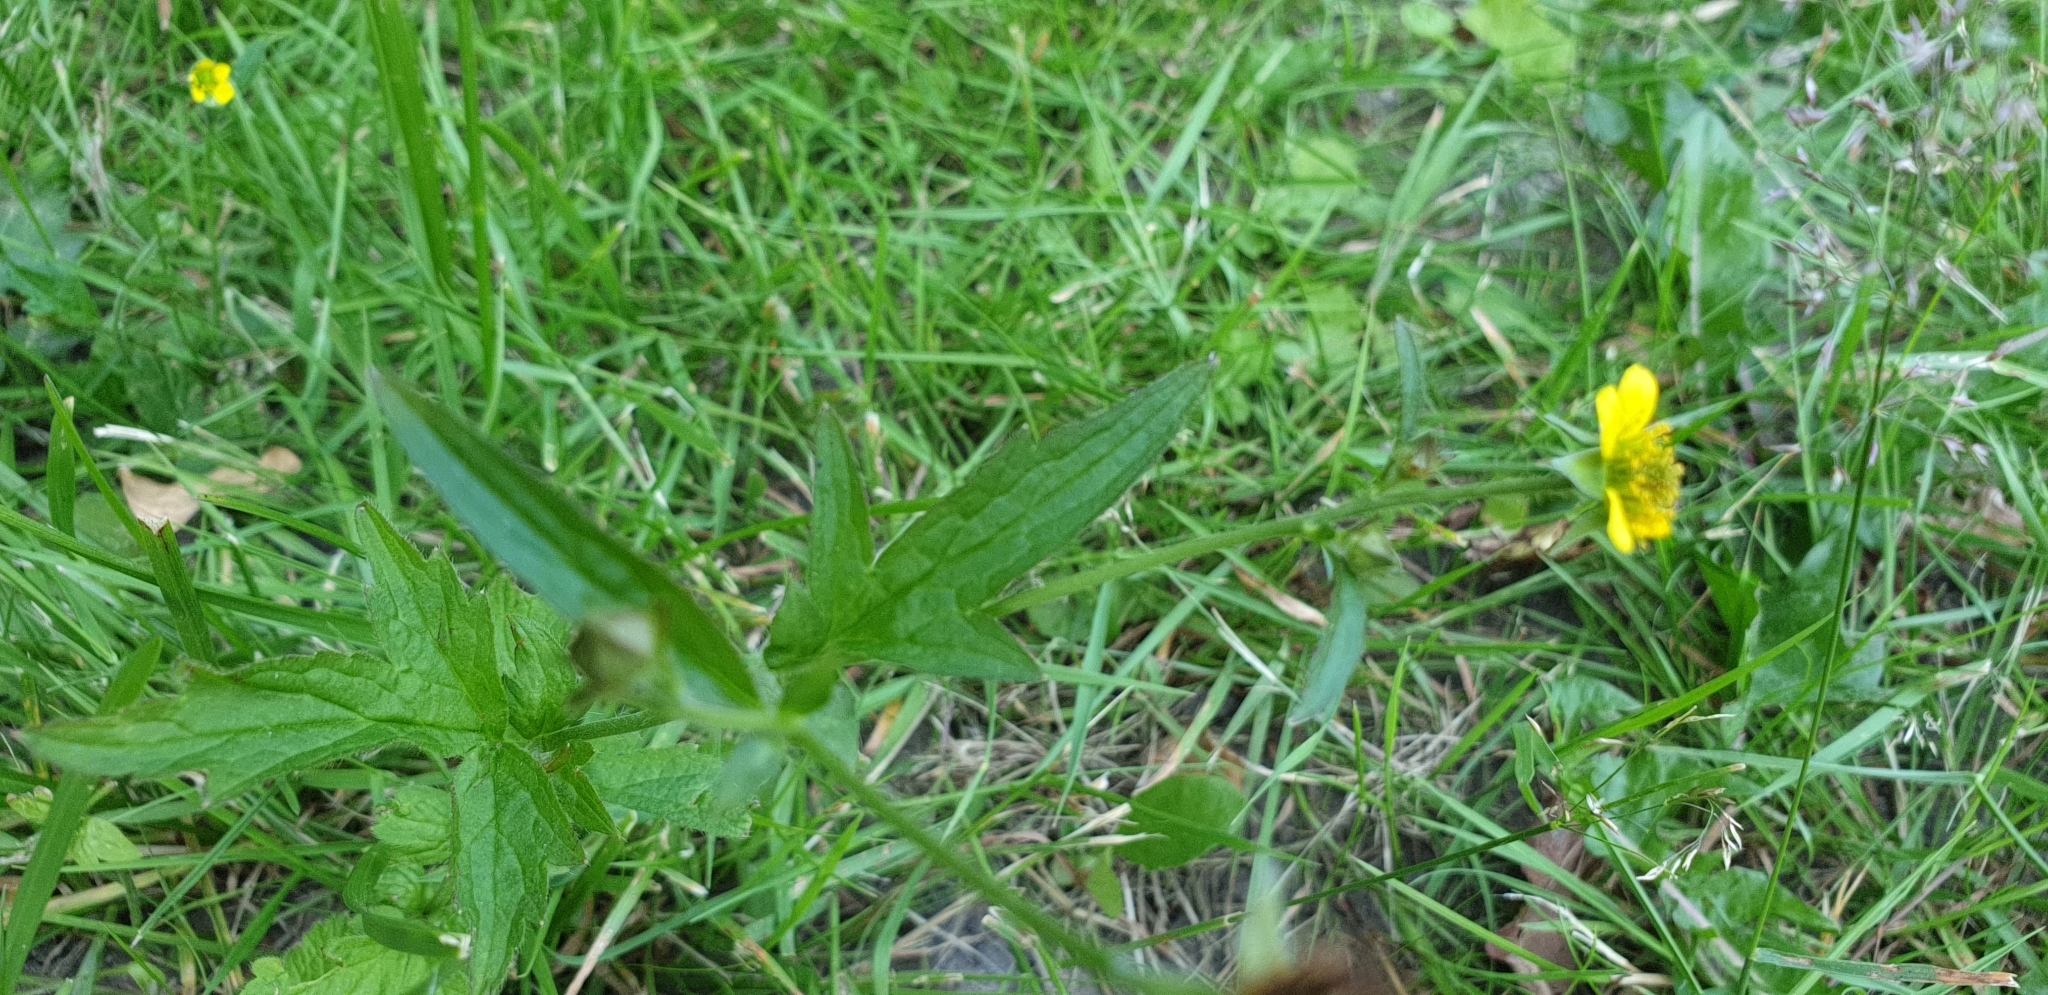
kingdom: Plantae
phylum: Tracheophyta
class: Magnoliopsida
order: Rosales
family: Rosaceae
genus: Geum
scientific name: Geum urbanum
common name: Wood avens
